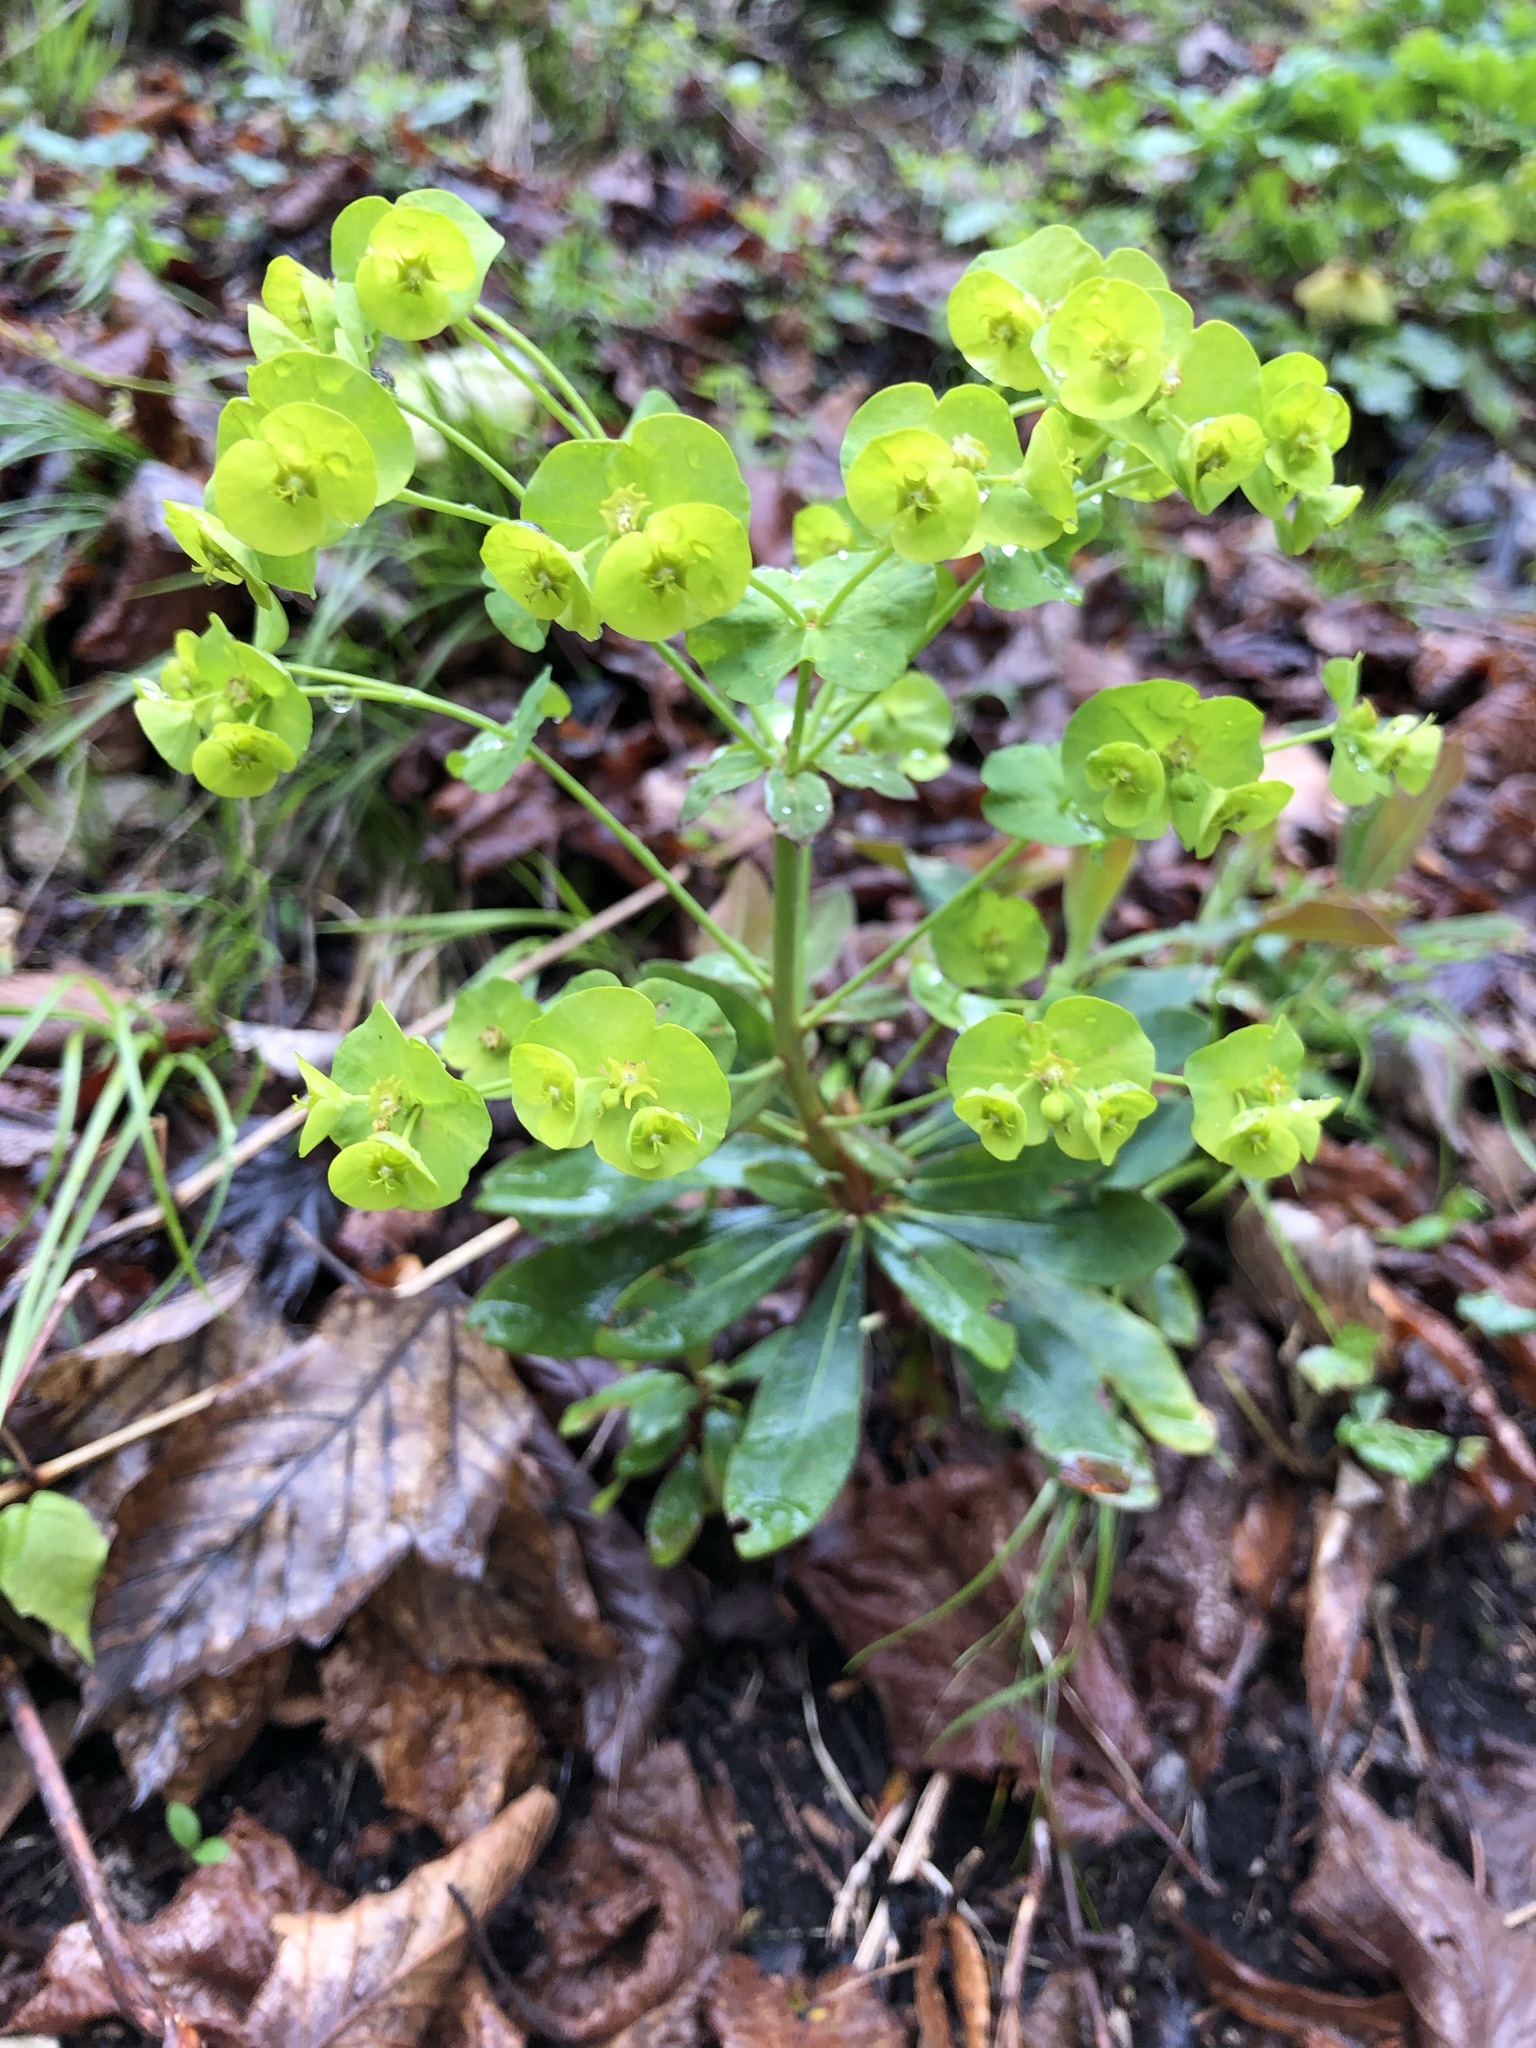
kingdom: Plantae
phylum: Tracheophyta
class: Magnoliopsida
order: Malpighiales
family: Euphorbiaceae
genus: Euphorbia
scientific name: Euphorbia amygdaloides
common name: Wood spurge
